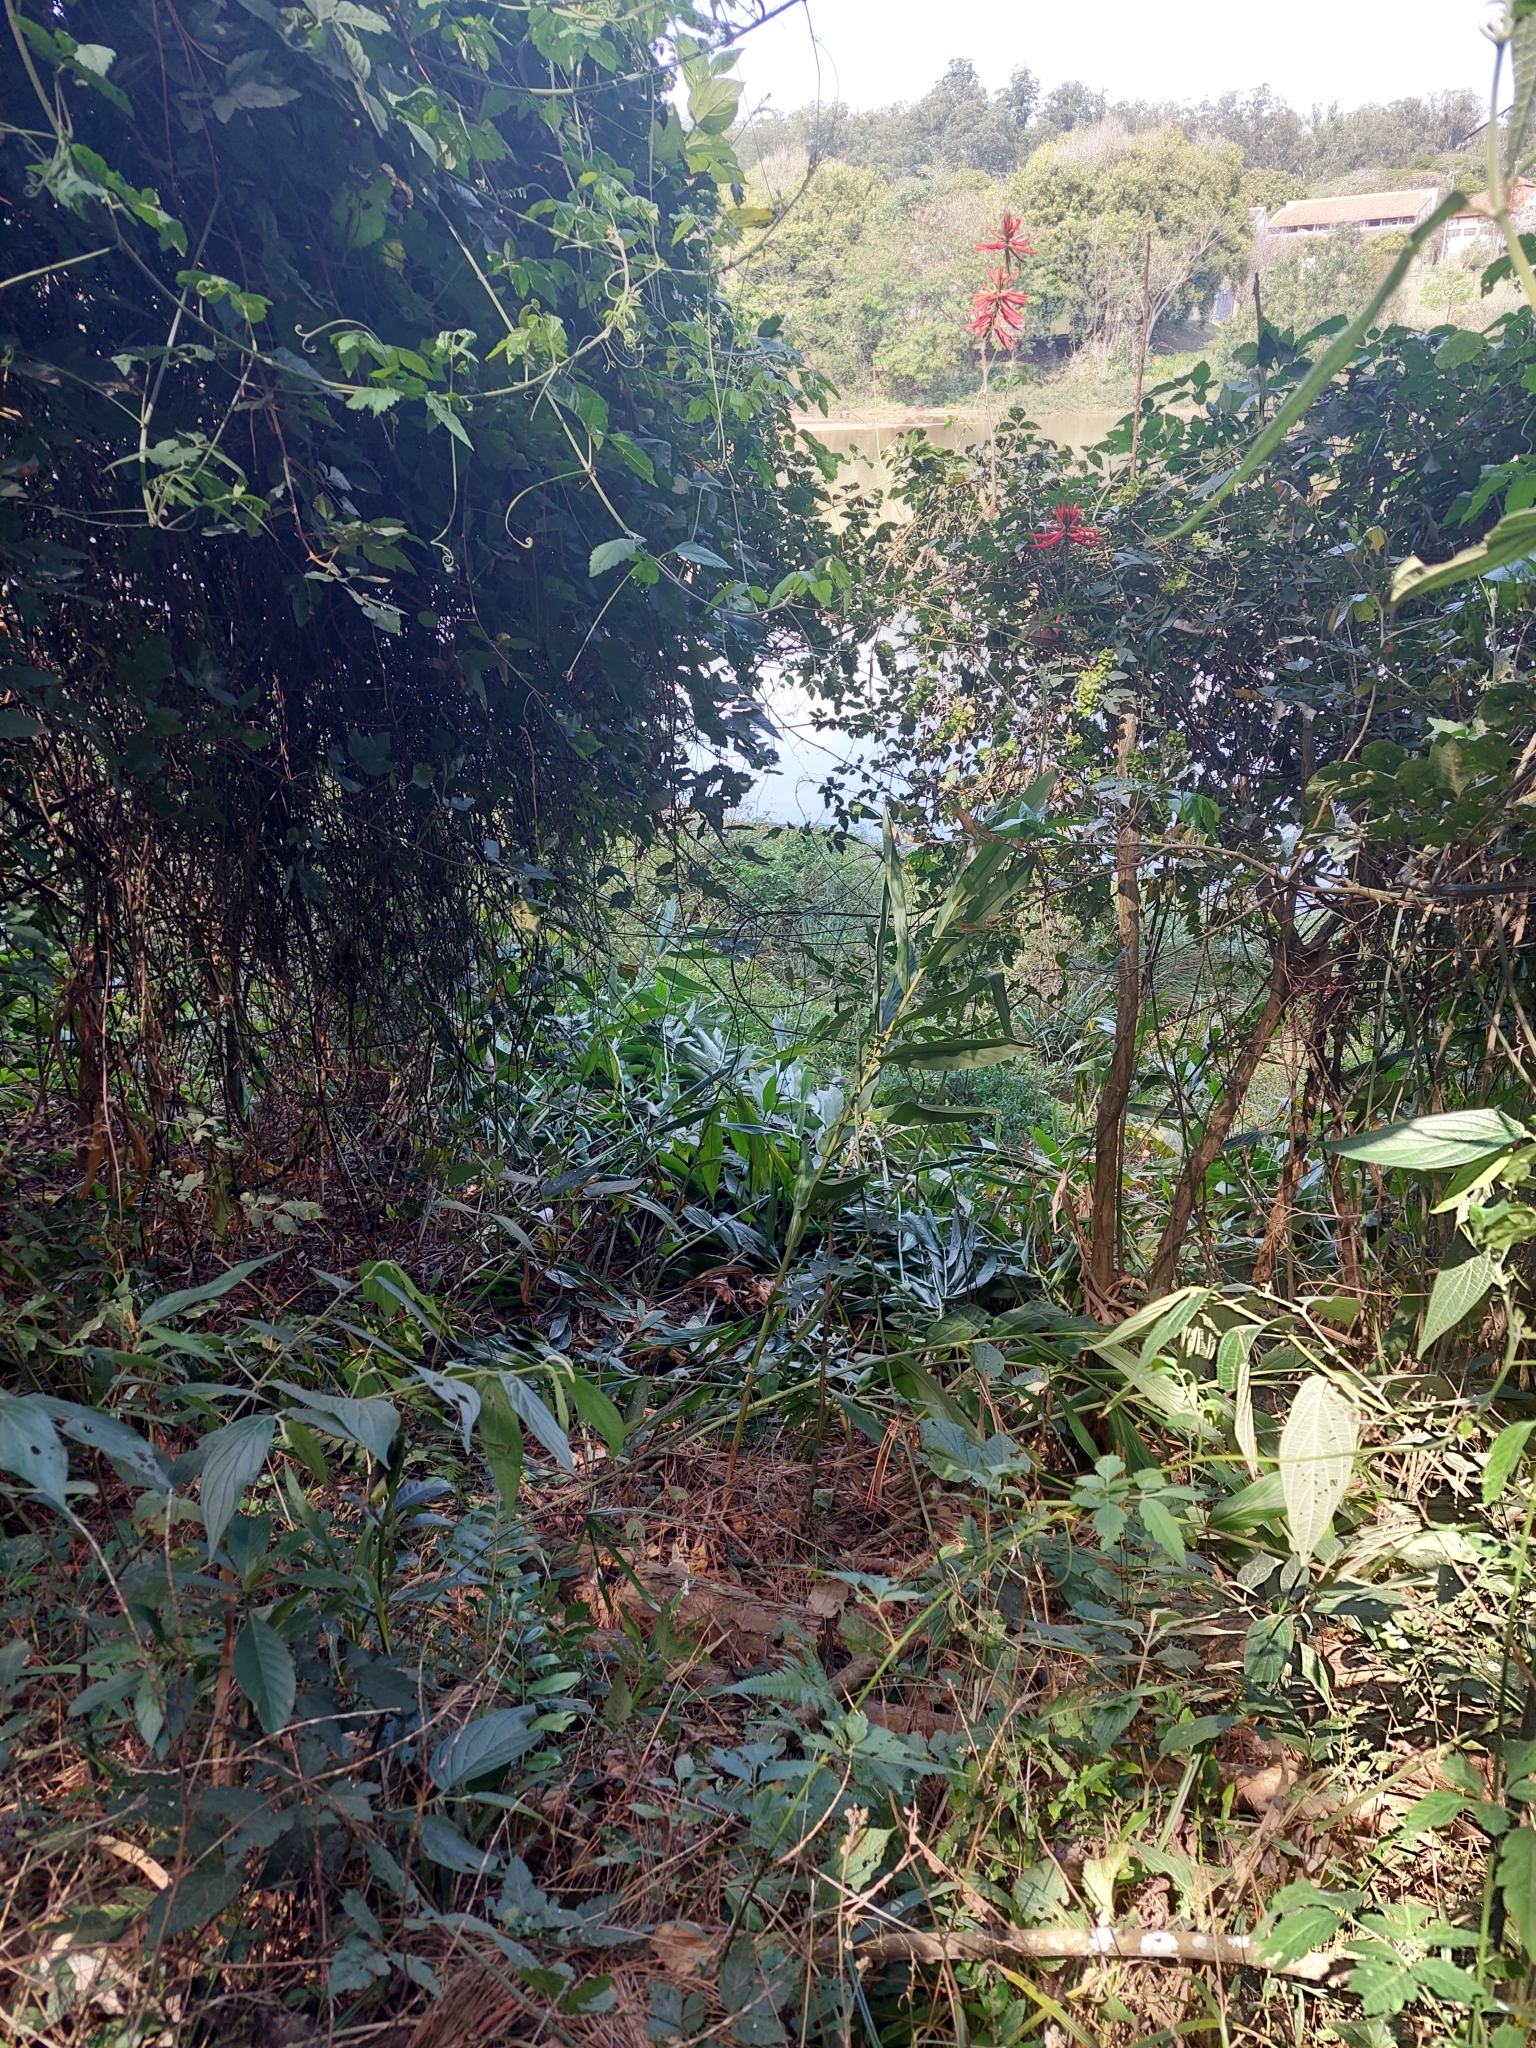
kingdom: Plantae
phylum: Tracheophyta
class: Liliopsida
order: Zingiberales
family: Zingiberaceae
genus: Hedychium
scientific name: Hedychium coronarium
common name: White garland-lily
